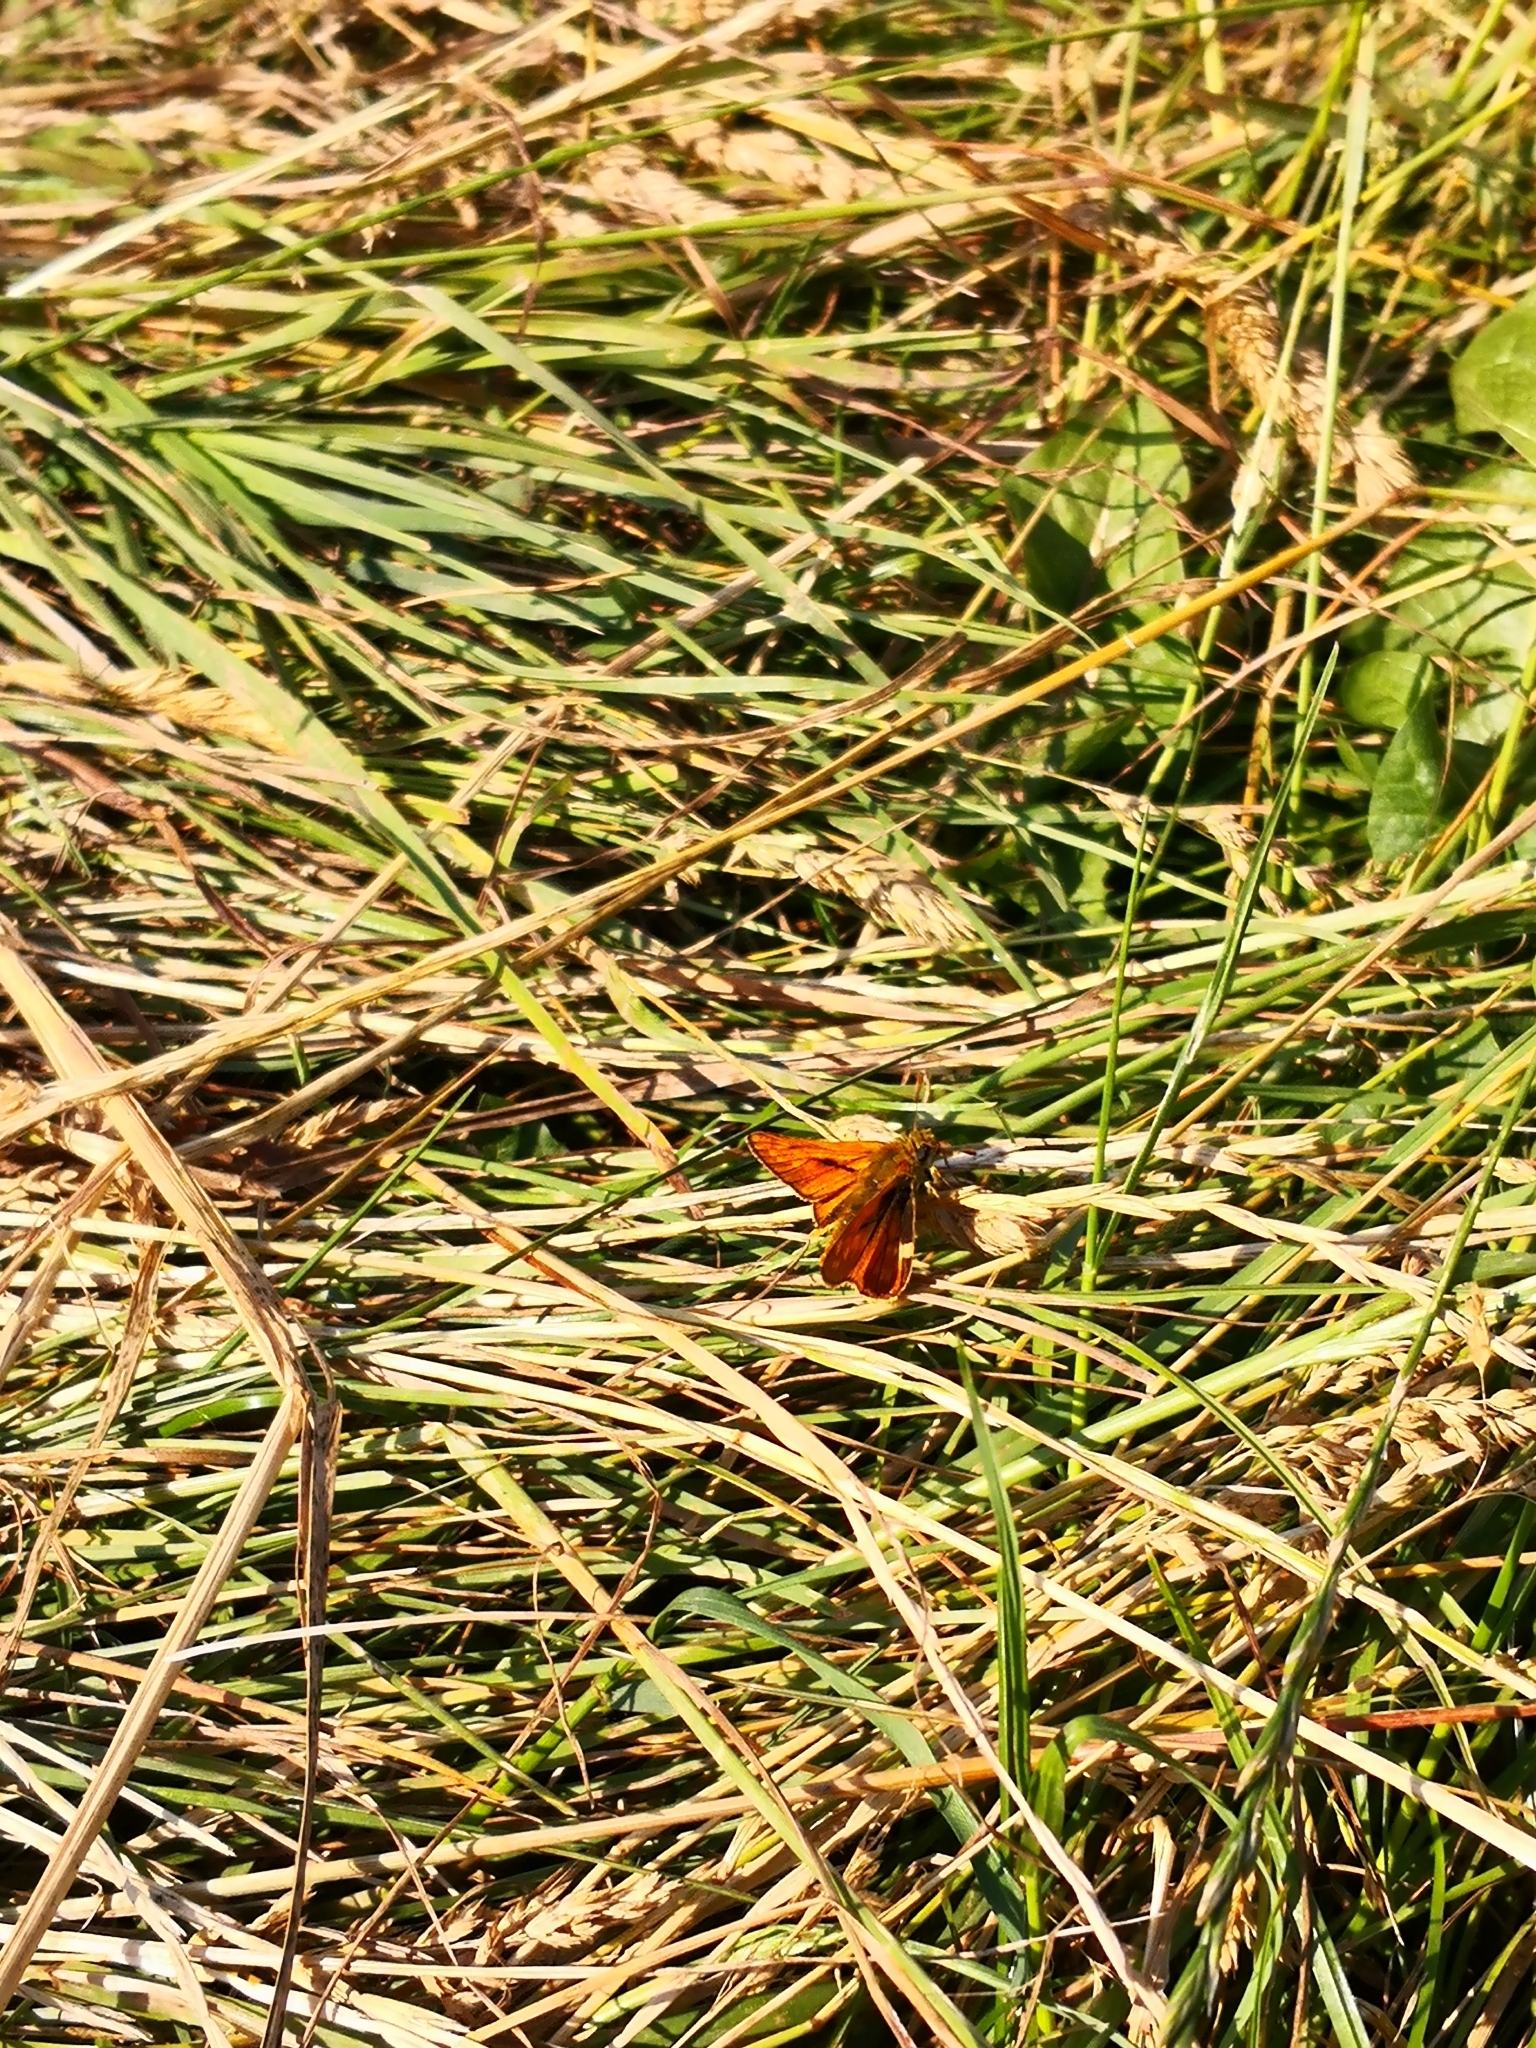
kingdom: Animalia
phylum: Arthropoda
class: Insecta
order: Lepidoptera
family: Hesperiidae
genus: Ochlodes
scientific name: Ochlodes venata
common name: Large skipper
